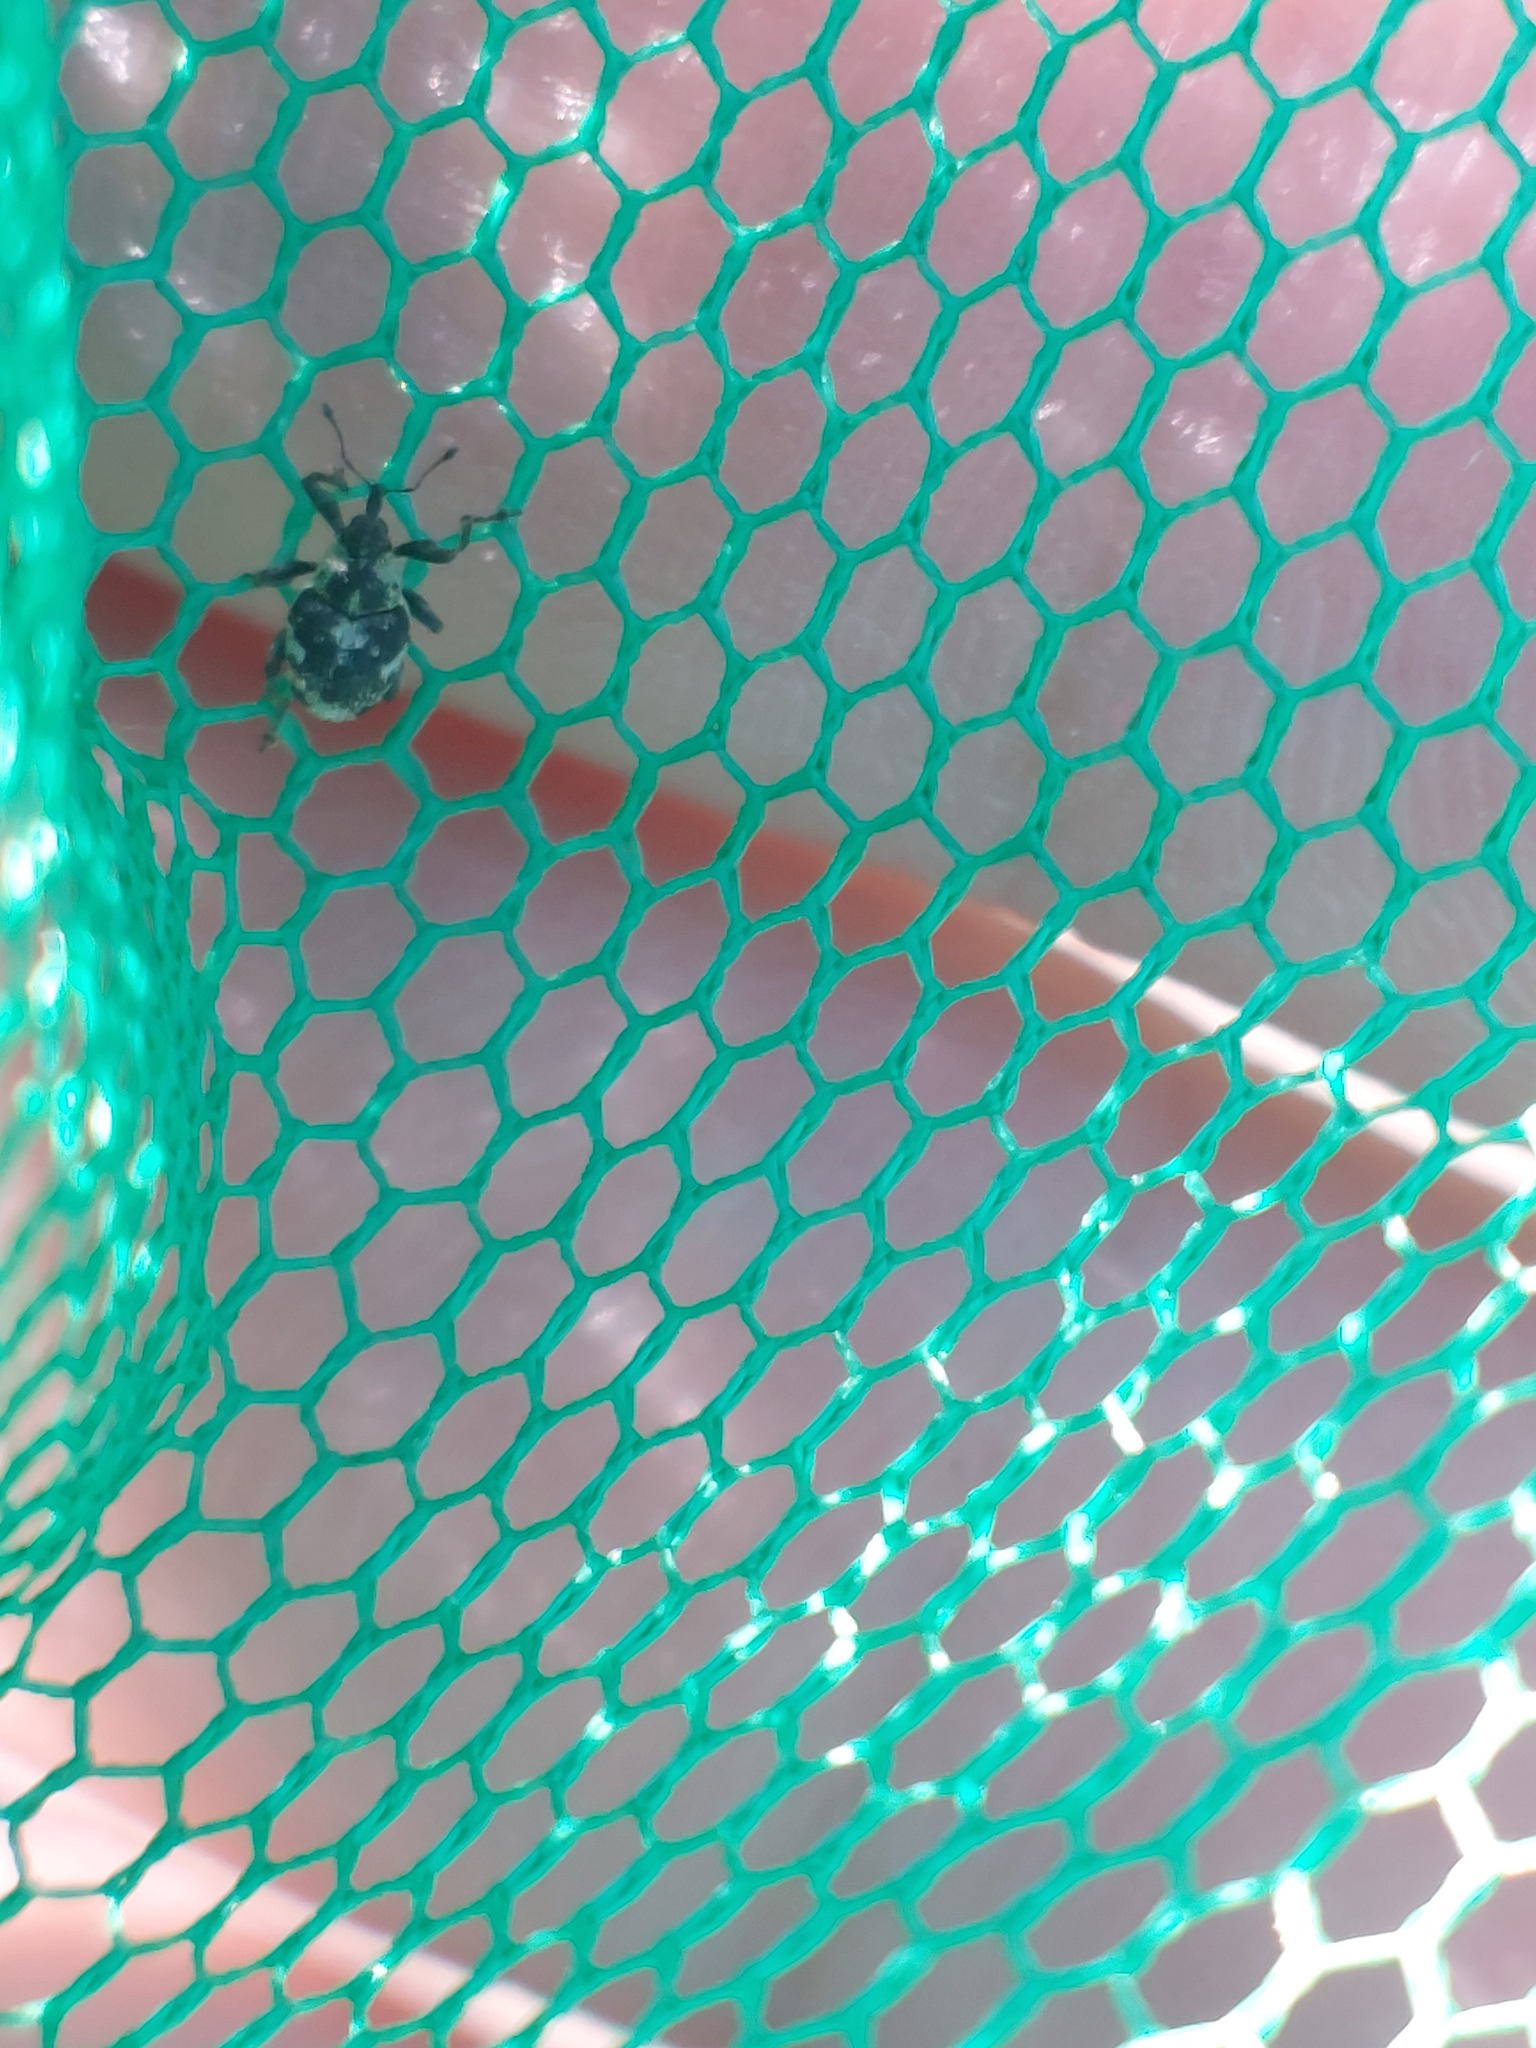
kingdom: Animalia
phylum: Arthropoda
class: Insecta
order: Coleoptera
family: Curculionidae
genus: Hadroplontus
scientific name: Hadroplontus litura
